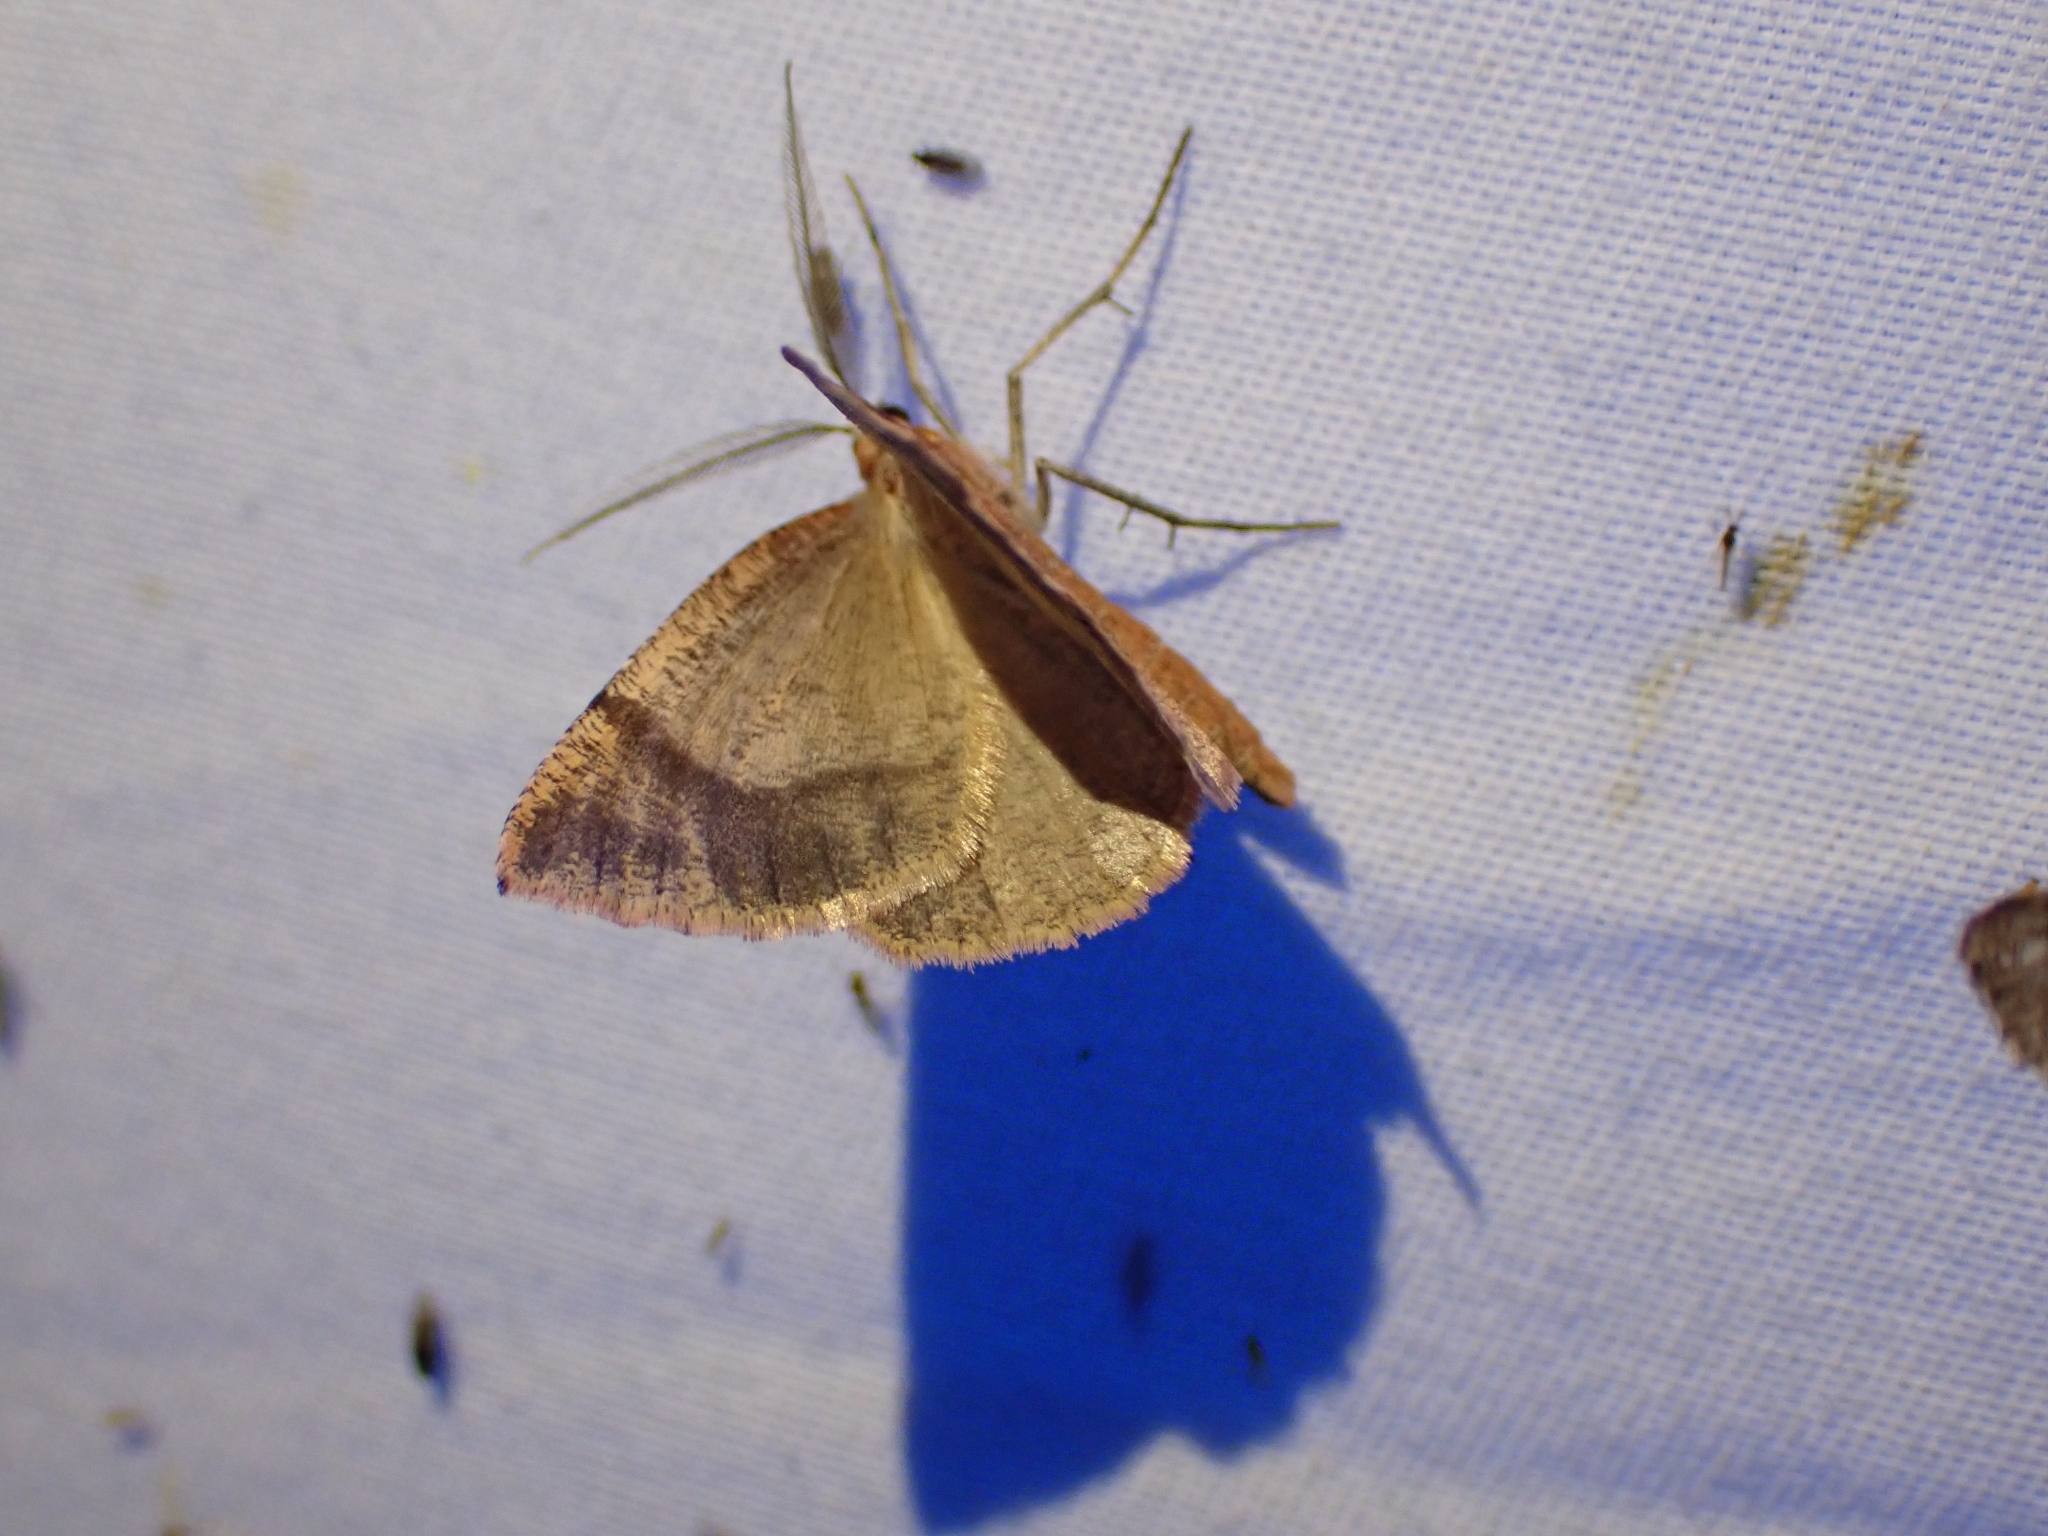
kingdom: Animalia
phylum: Arthropoda
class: Insecta
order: Lepidoptera
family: Geometridae
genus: Sericosema
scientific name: Sericosema juturnaria
